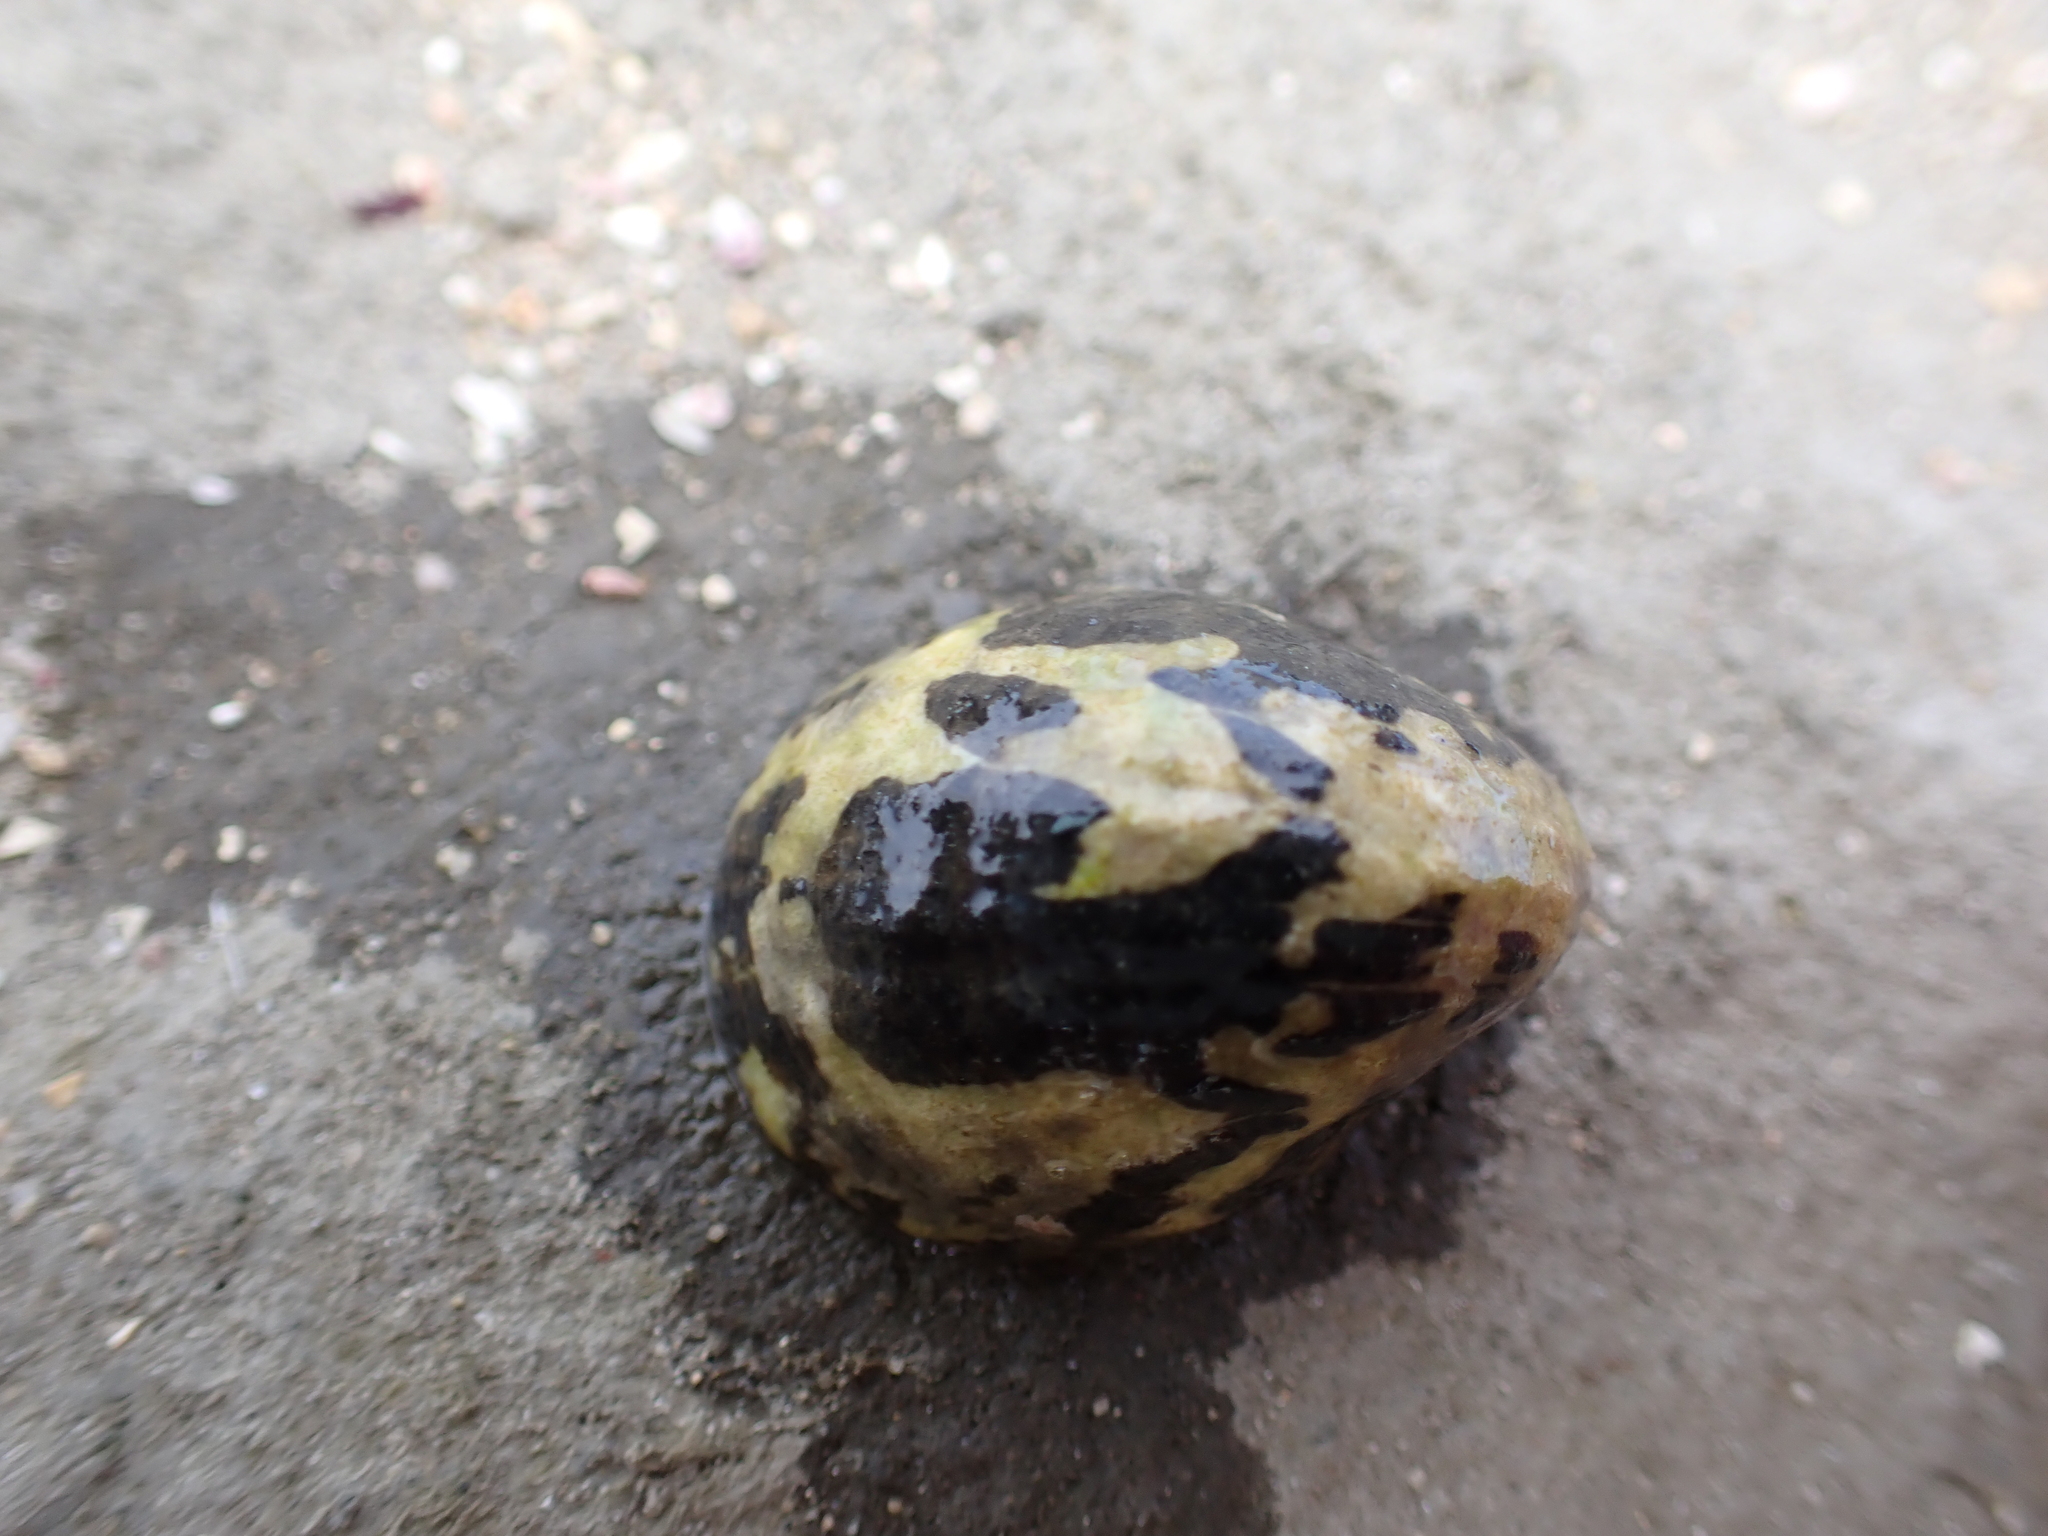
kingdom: Animalia
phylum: Mollusca
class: Gastropoda
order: Cycloneritida
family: Neritidae
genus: Nerita
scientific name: Nerita albicilla
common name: Blotched nerite
